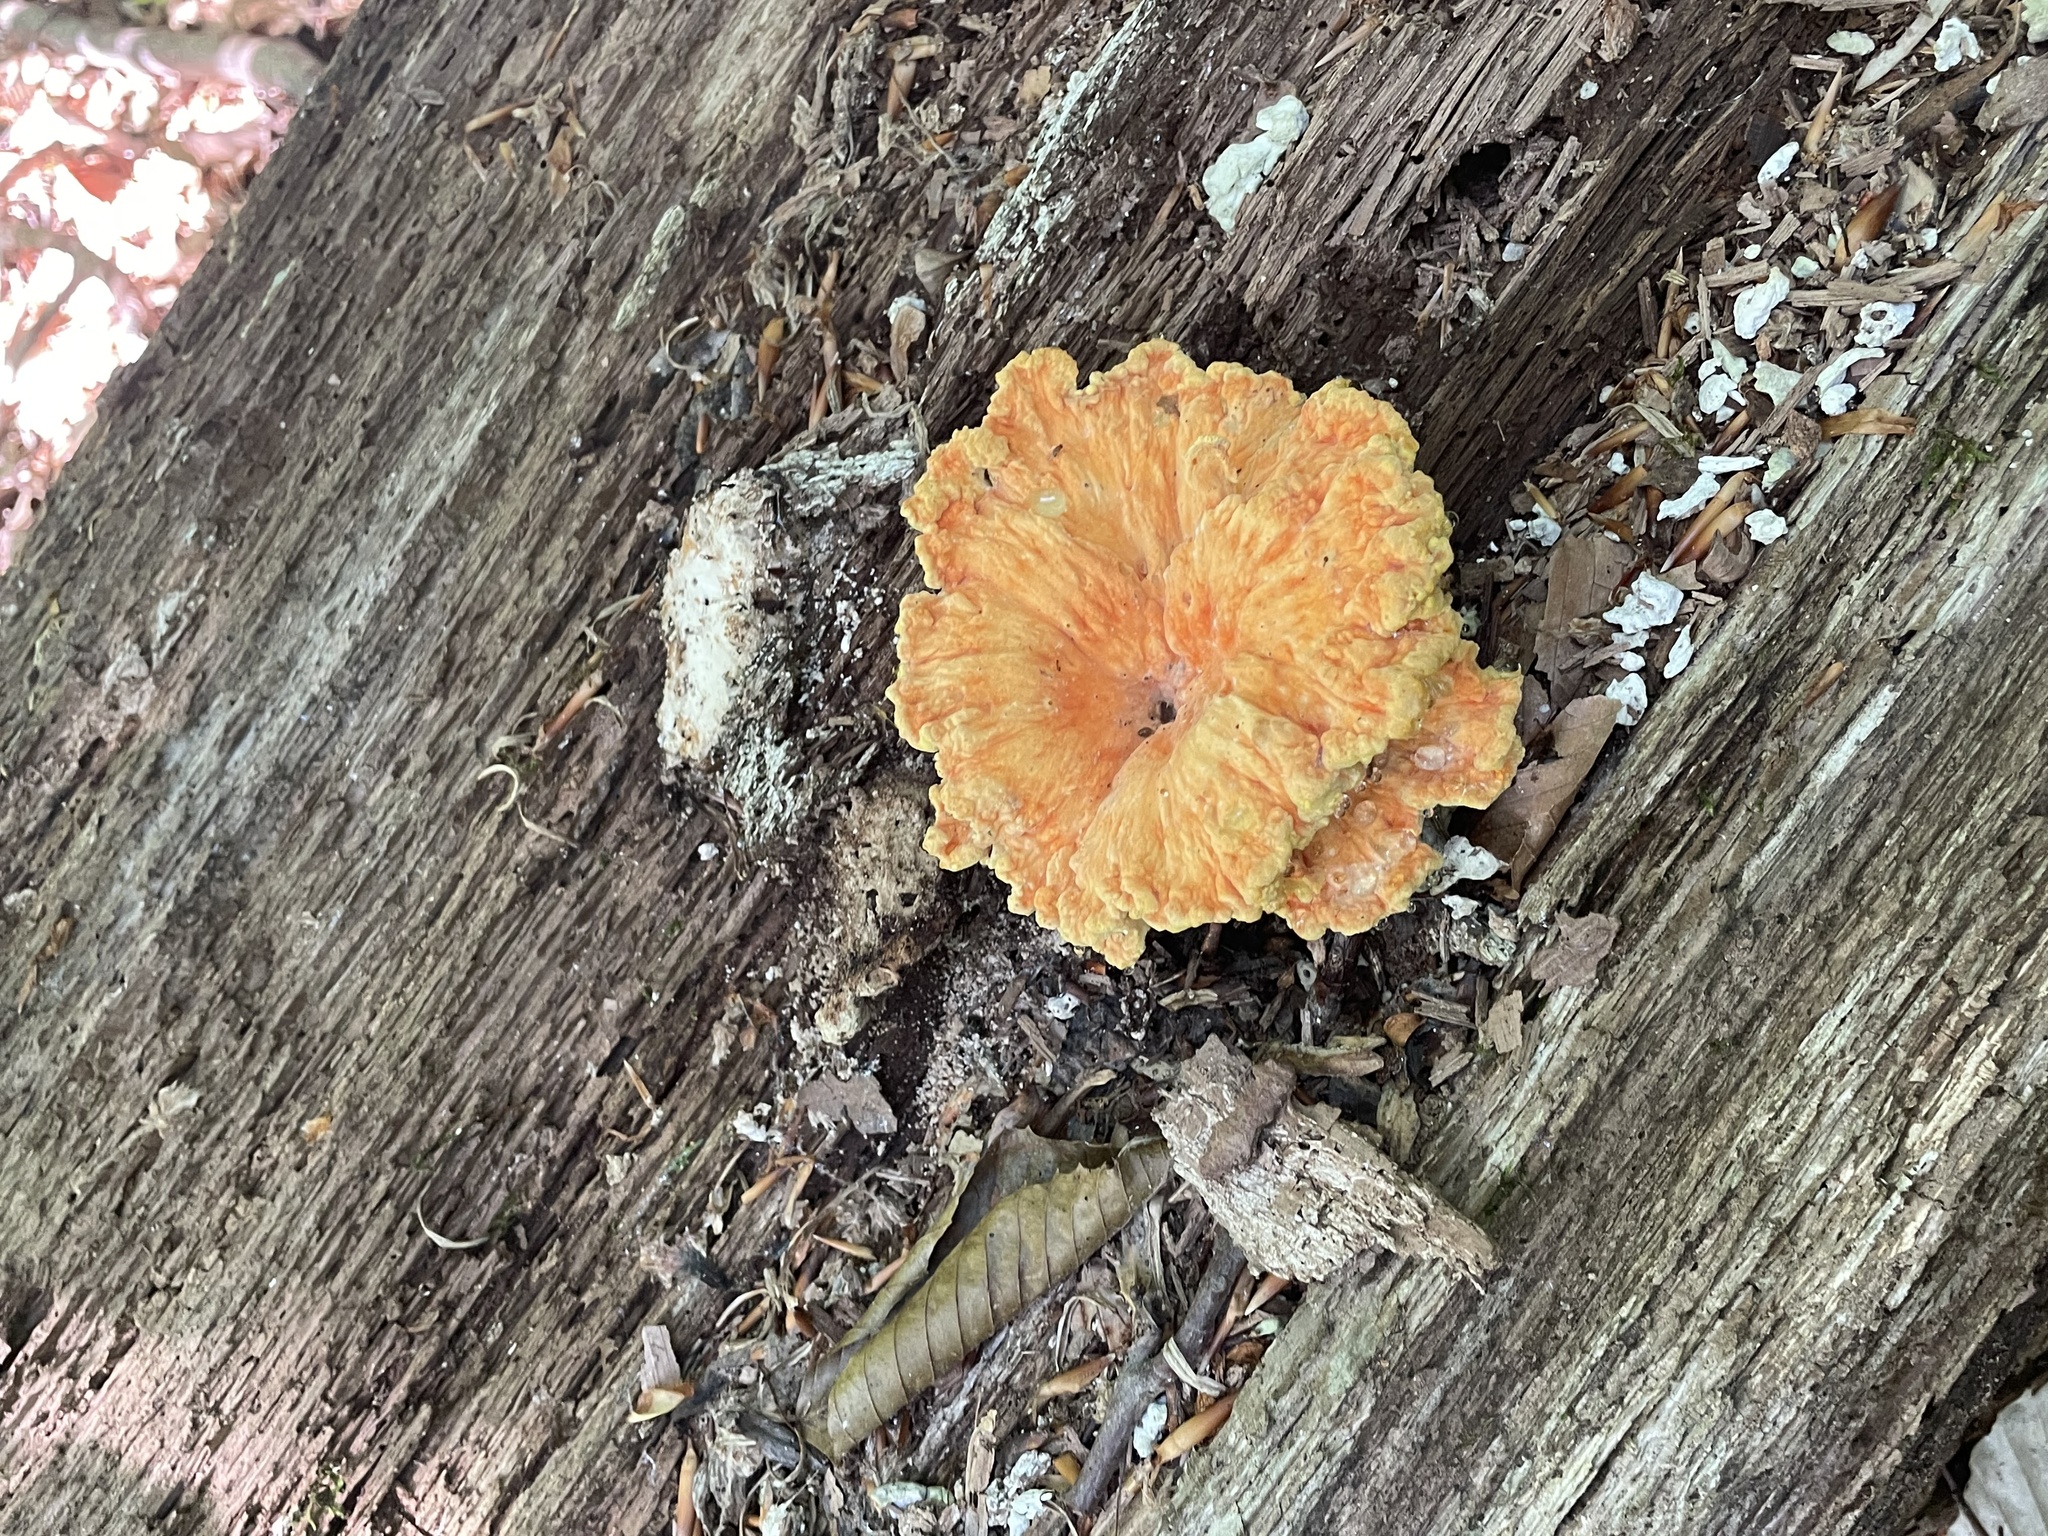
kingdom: Fungi
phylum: Basidiomycota
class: Agaricomycetes
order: Polyporales
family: Laetiporaceae
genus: Laetiporus
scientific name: Laetiporus sulphureus
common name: Chicken of the woods
